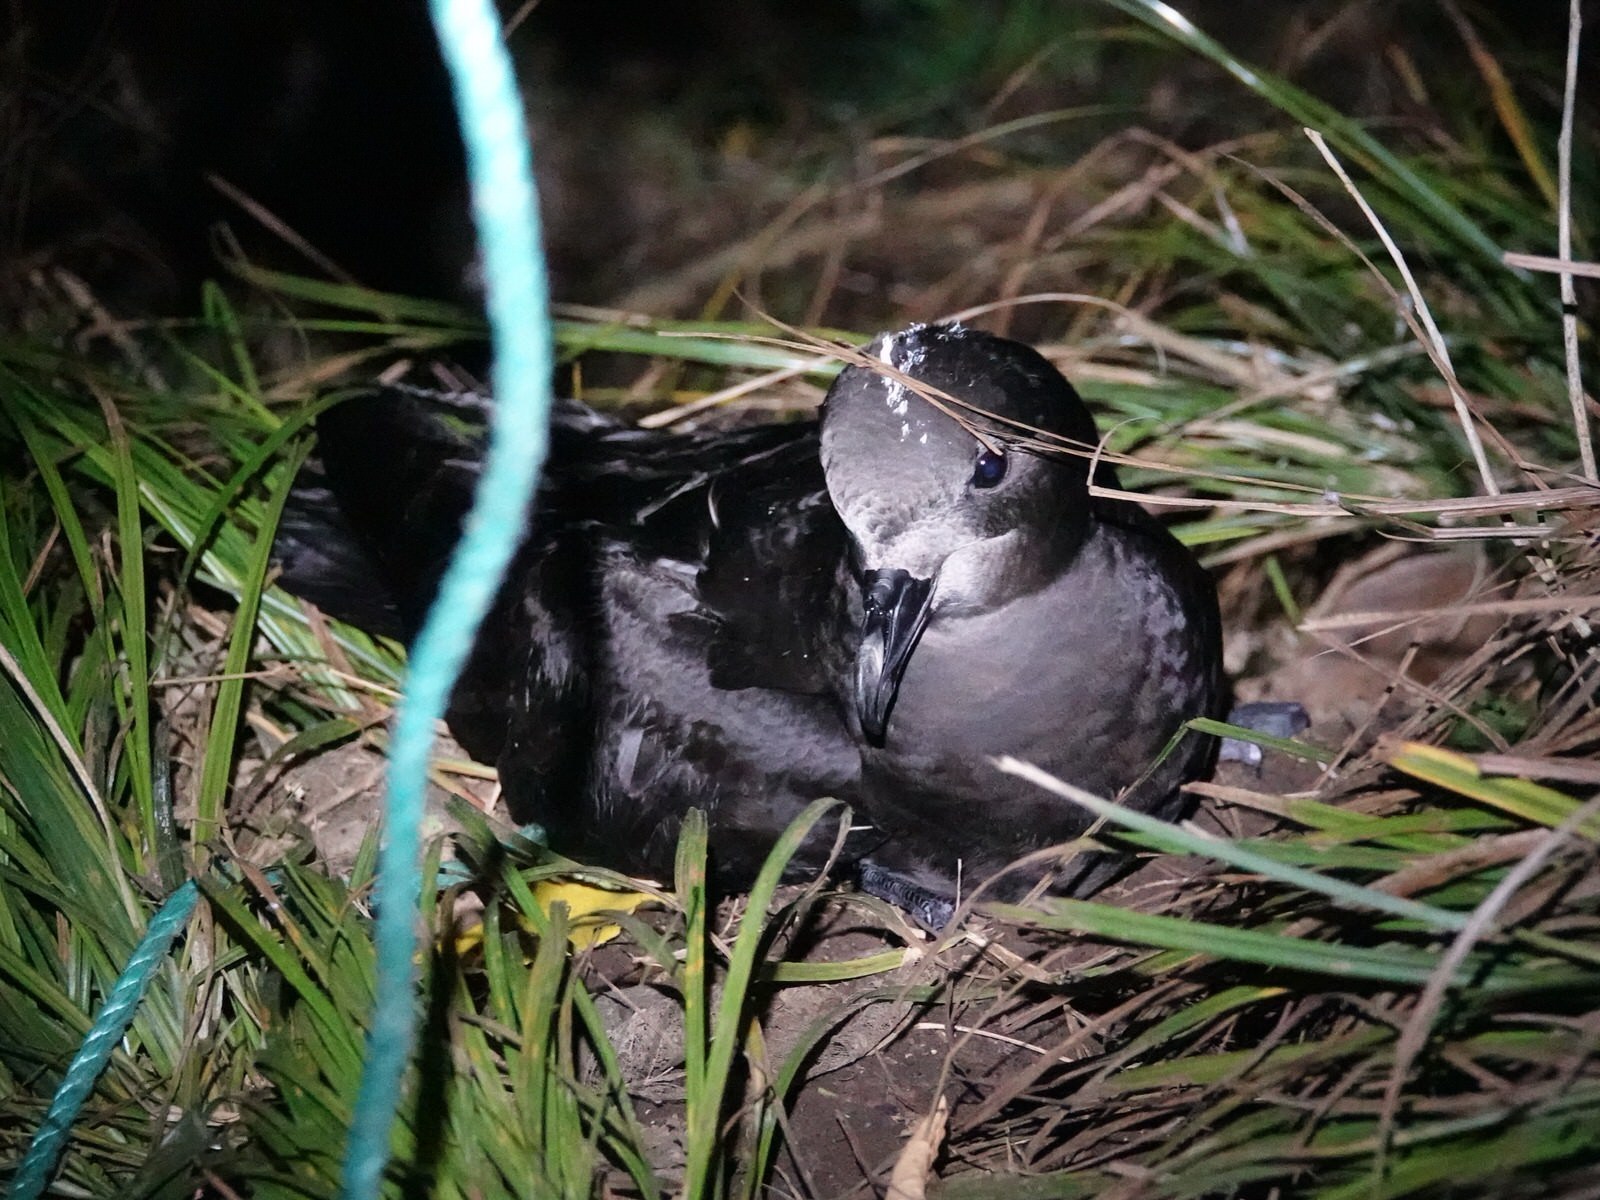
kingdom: Animalia
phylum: Chordata
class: Aves
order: Procellariiformes
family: Procellariidae
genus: Pterodroma
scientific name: Pterodroma macroptera
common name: Great-winged petrel
